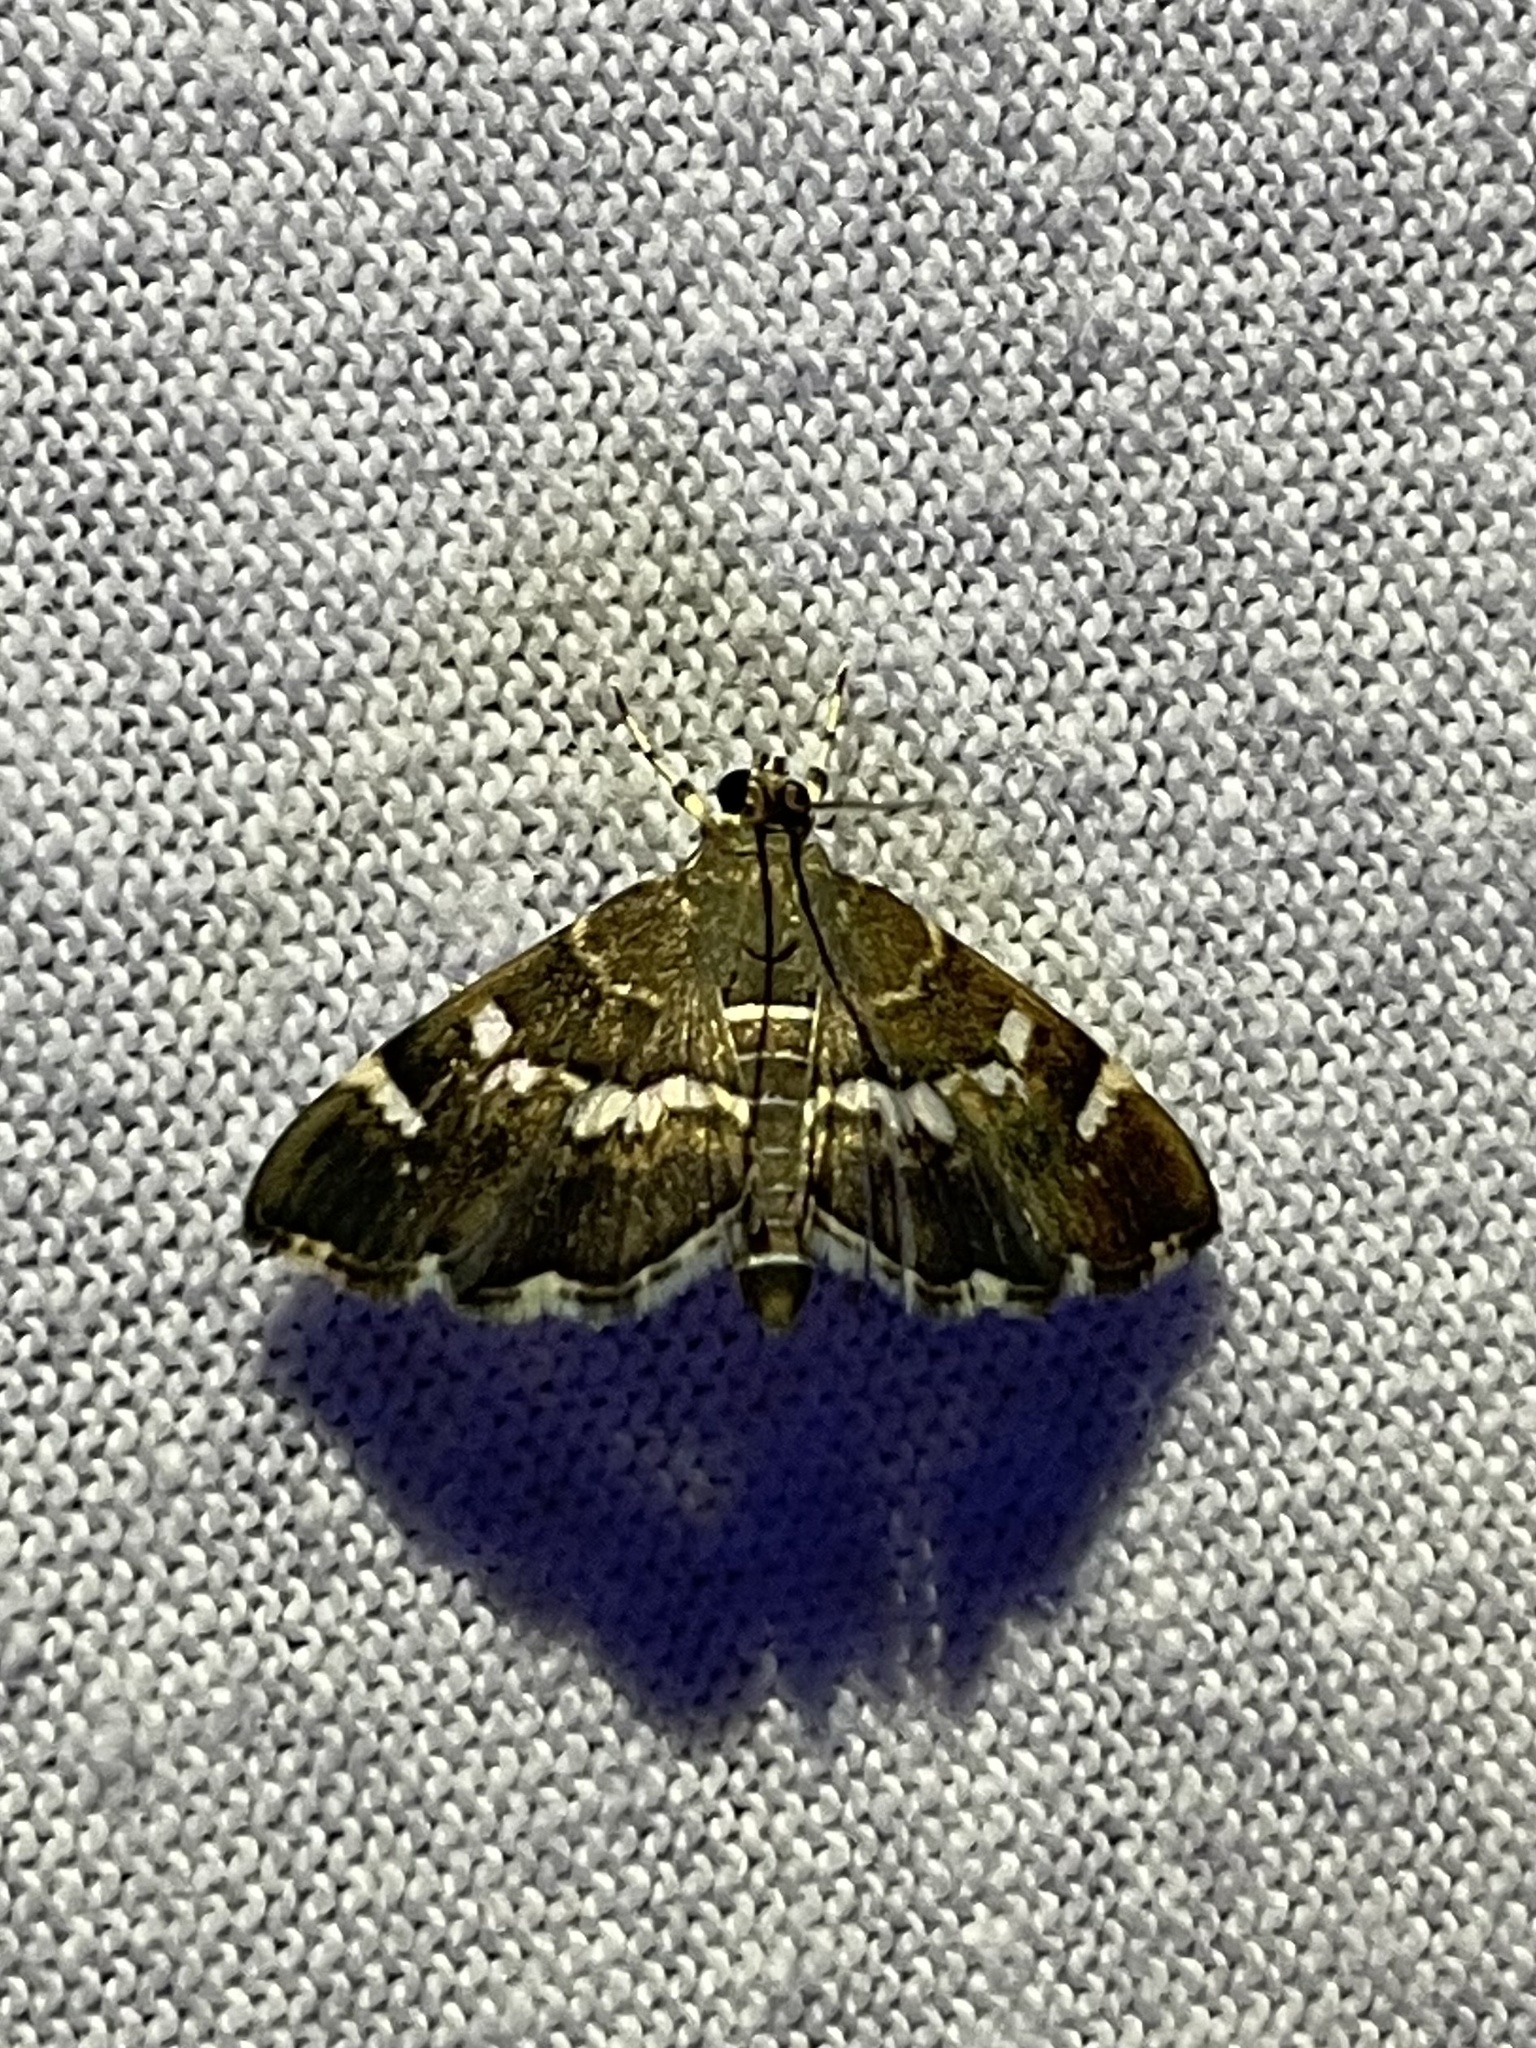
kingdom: Animalia
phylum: Arthropoda
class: Insecta
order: Lepidoptera
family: Crambidae
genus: Hymenia
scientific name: Hymenia perspectalis
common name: Spotted beet webworm
